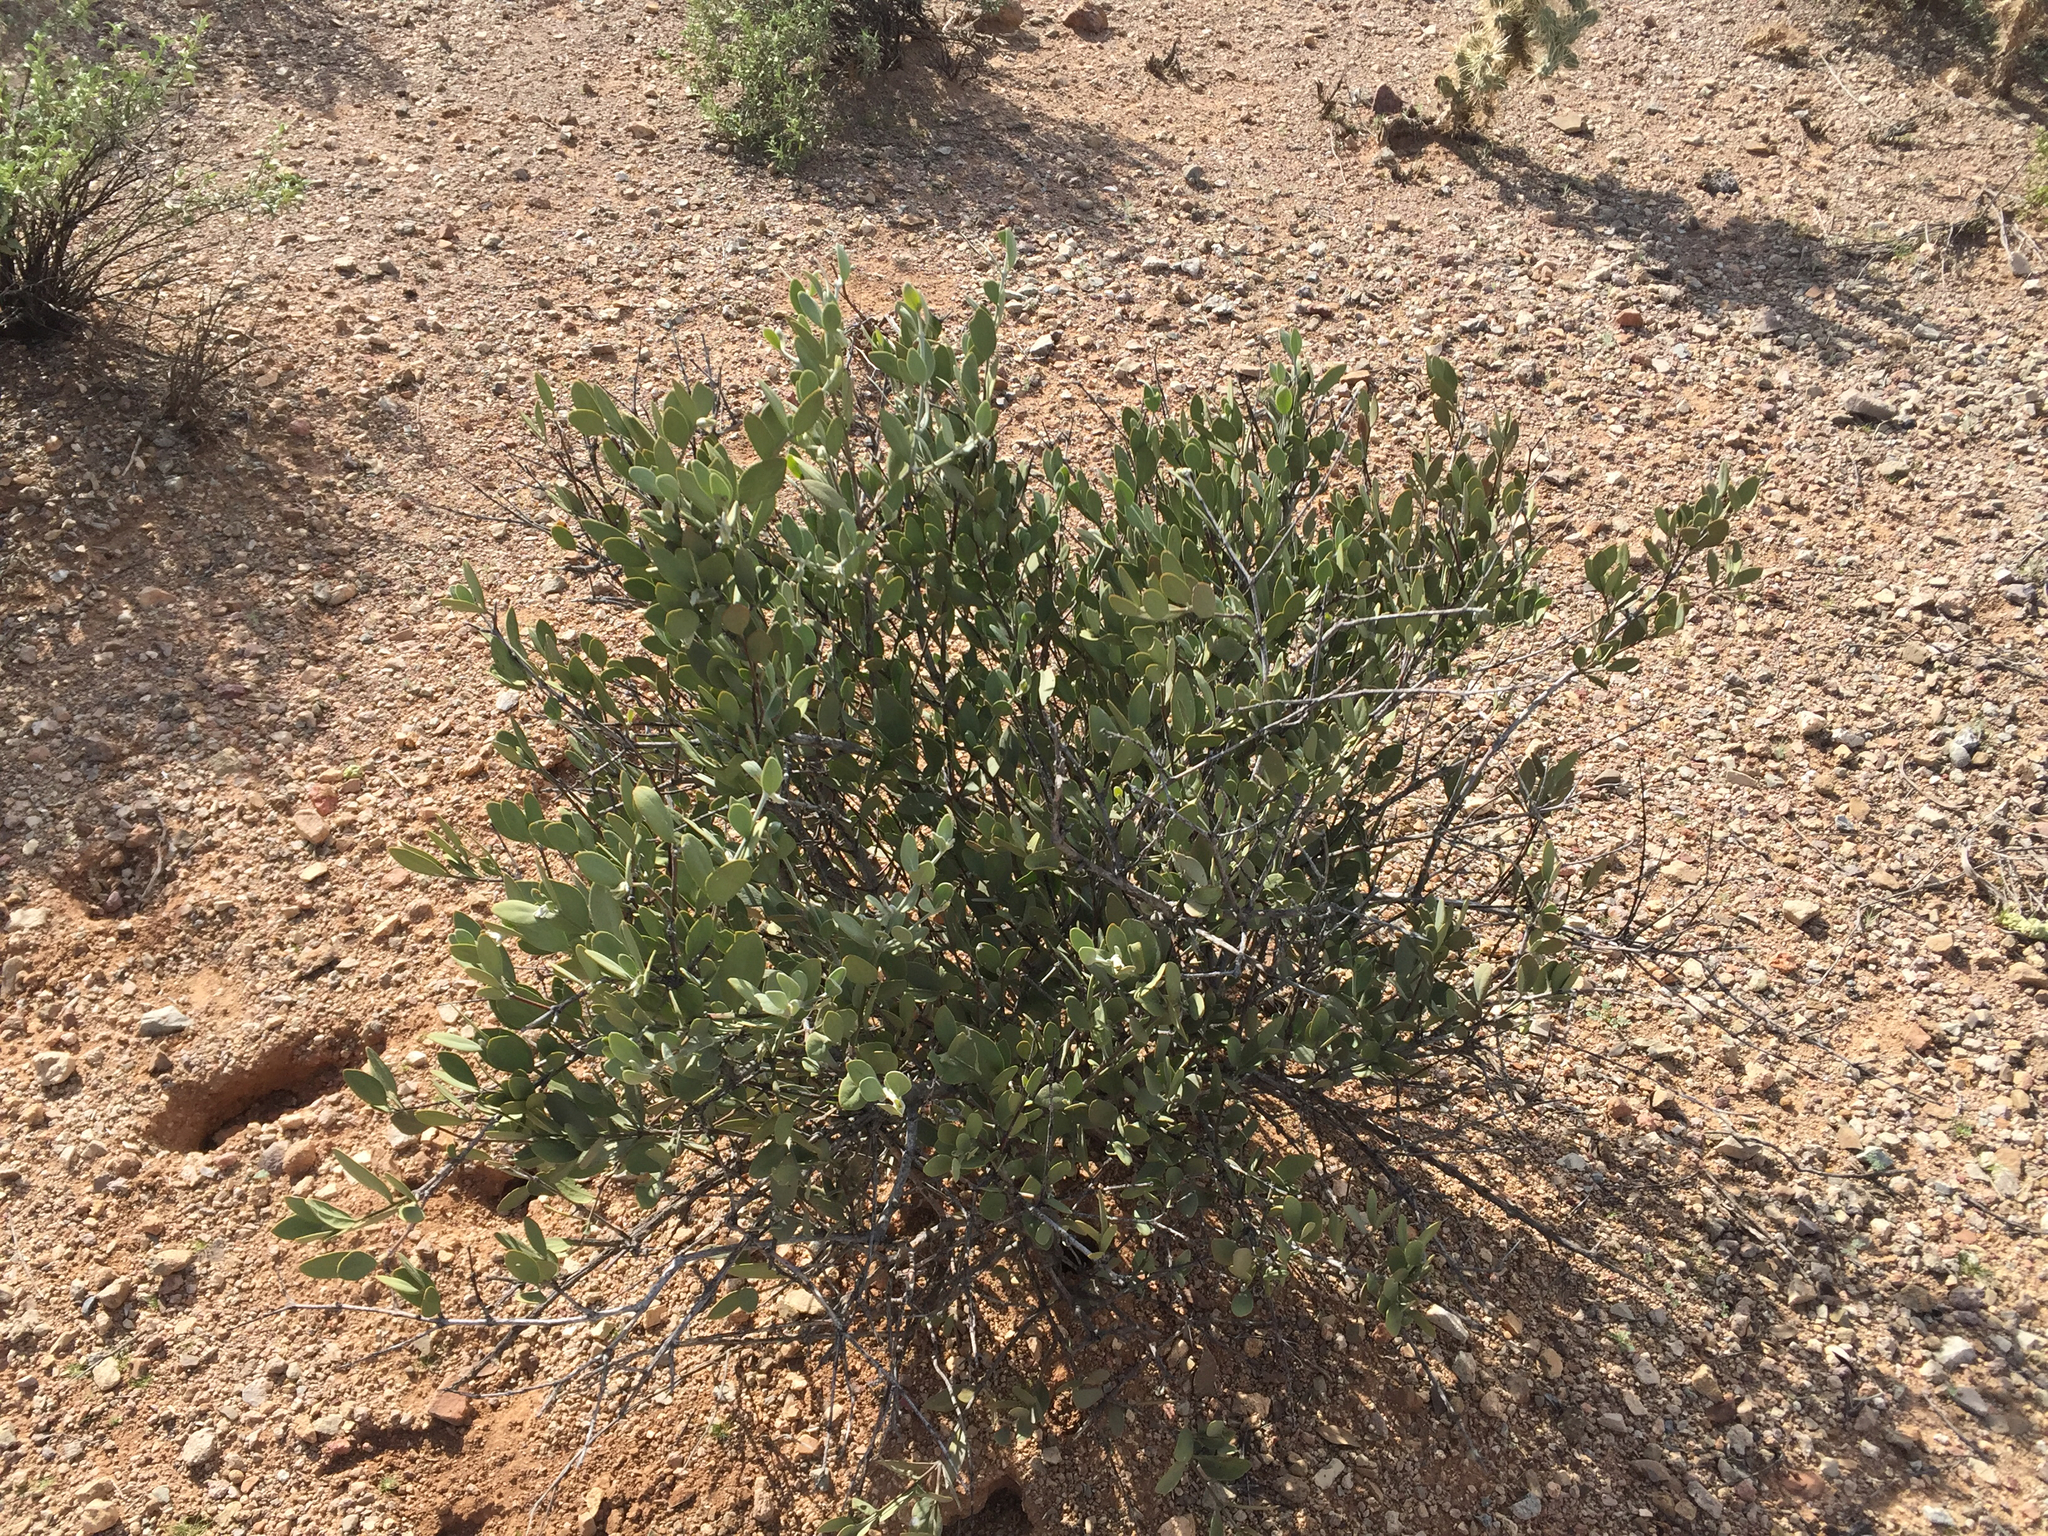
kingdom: Plantae
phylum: Tracheophyta
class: Magnoliopsida
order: Caryophyllales
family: Simmondsiaceae
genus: Simmondsia
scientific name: Simmondsia chinensis
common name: Jojoba
